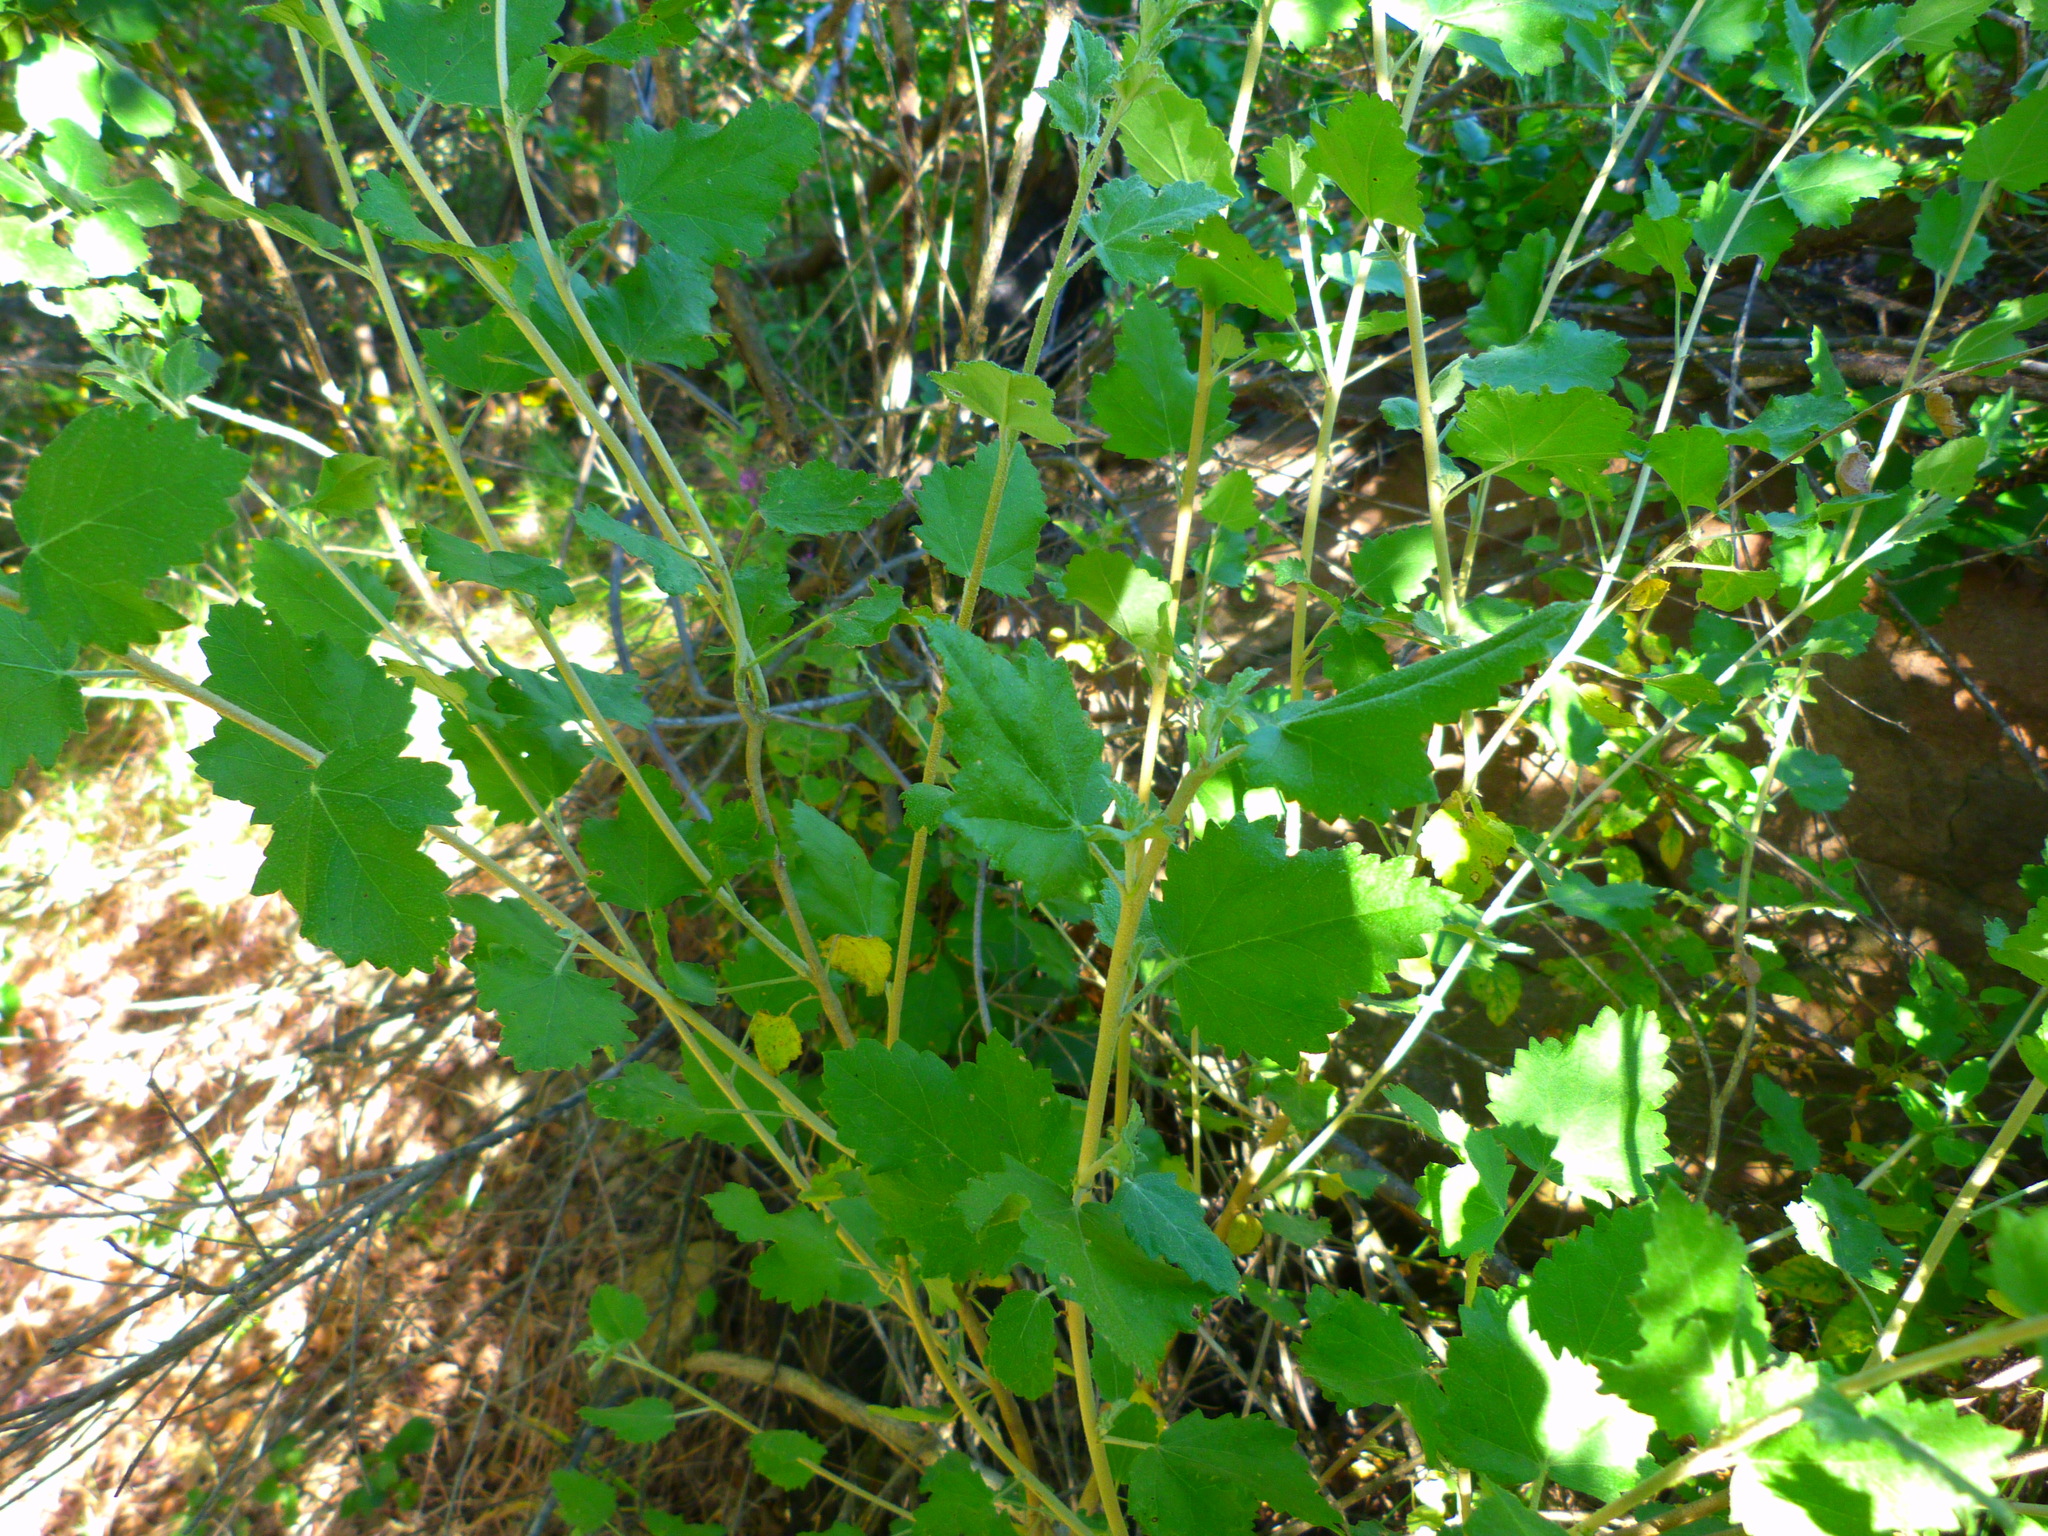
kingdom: Plantae
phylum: Tracheophyta
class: Magnoliopsida
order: Malvales
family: Malvaceae
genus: Malacothamnus
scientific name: Malacothamnus fasciculatus
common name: Sant cruz island bush-mallow
